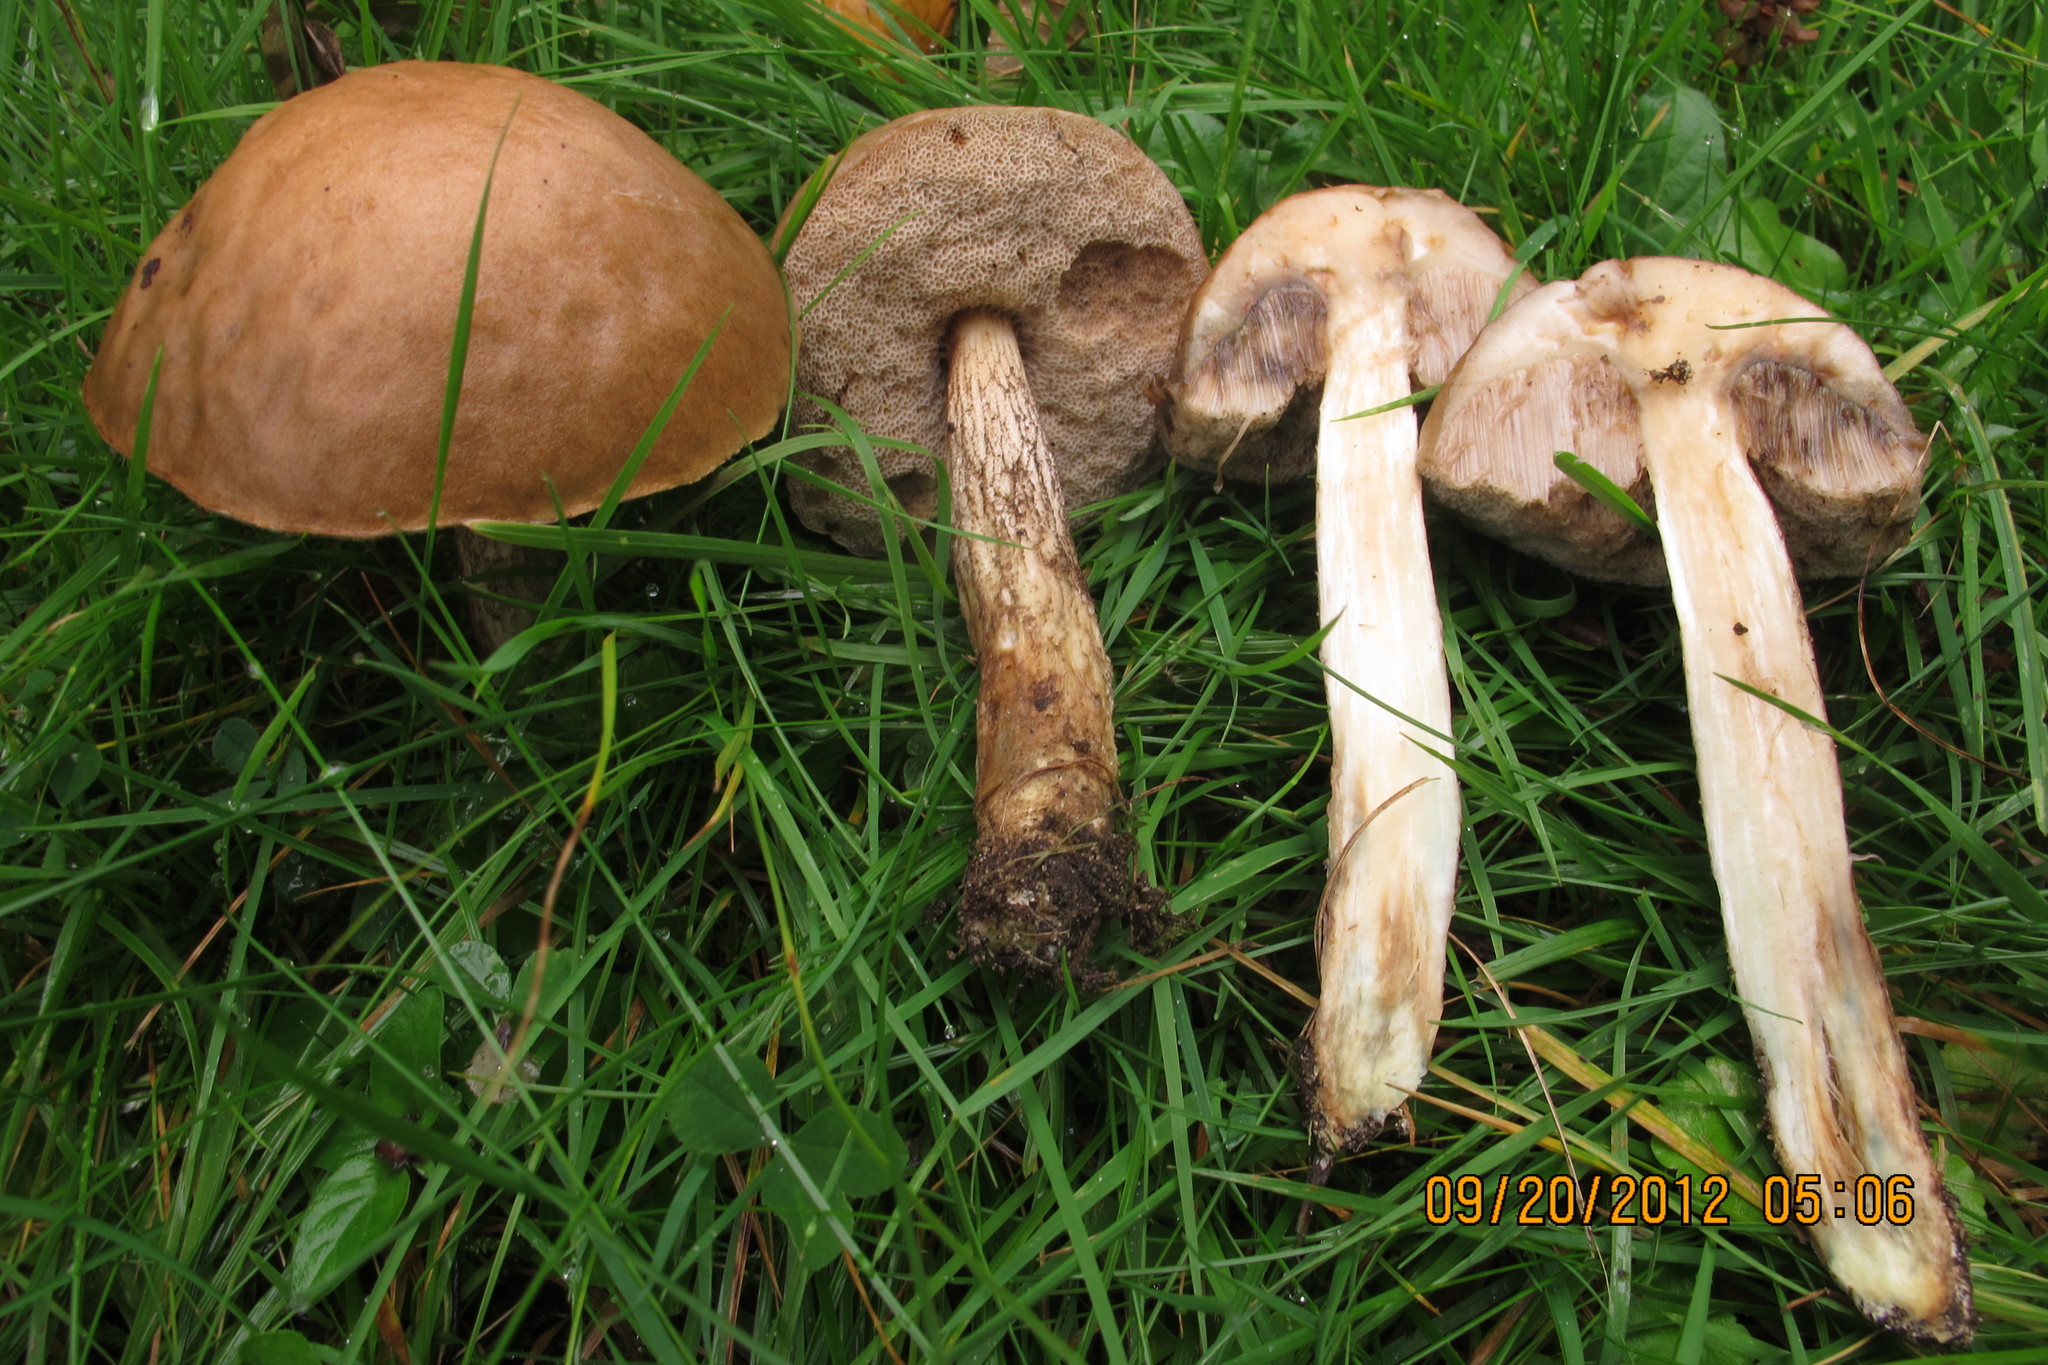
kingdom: Fungi
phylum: Basidiomycota
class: Agaricomycetes
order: Boletales
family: Boletaceae
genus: Leccinum
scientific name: Leccinum scabrum
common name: Blushing bolete
